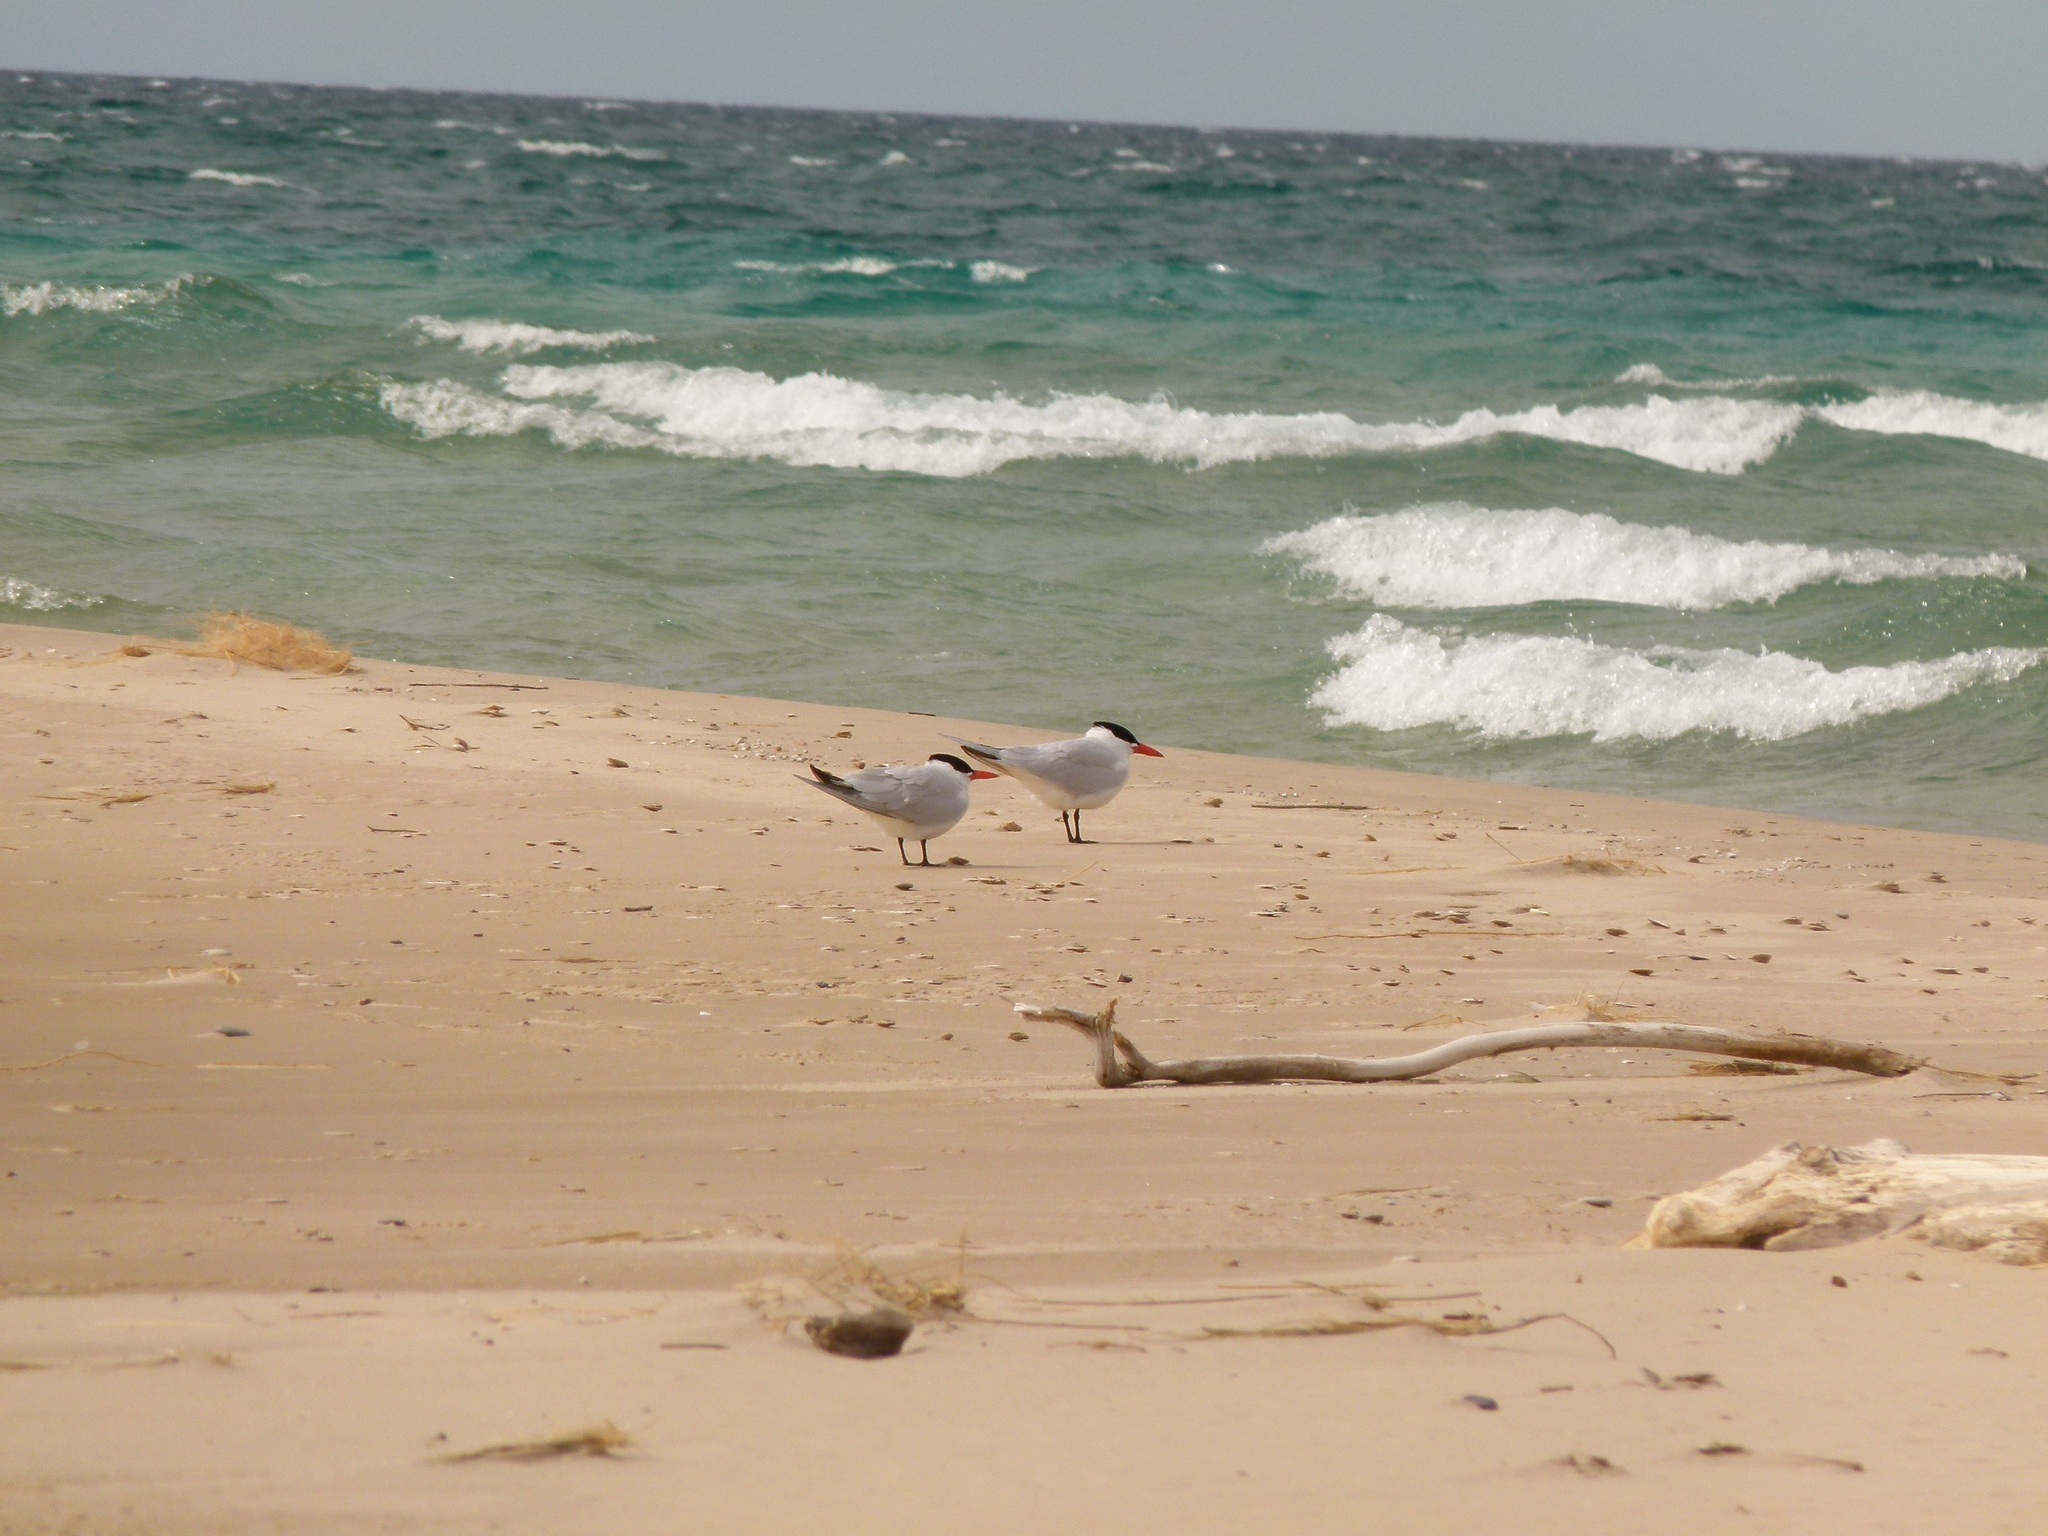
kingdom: Animalia
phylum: Chordata
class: Aves
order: Charadriiformes
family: Laridae
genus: Hydroprogne
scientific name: Hydroprogne caspia
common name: Caspian tern
